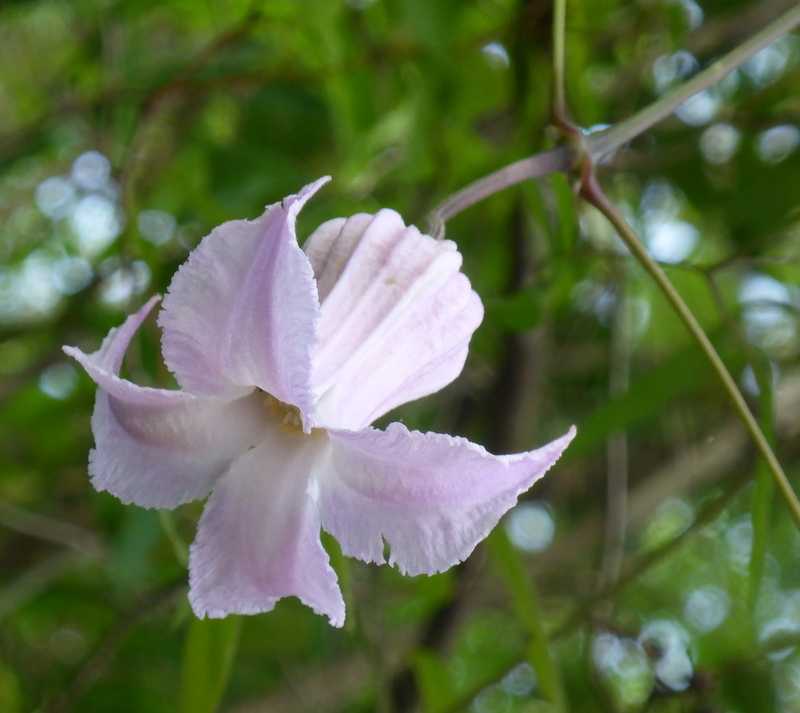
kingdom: Plantae
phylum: Tracheophyta
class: Magnoliopsida
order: Ranunculales
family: Ranunculaceae
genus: Clematis
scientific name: Clematis crispa
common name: Curly clematis
